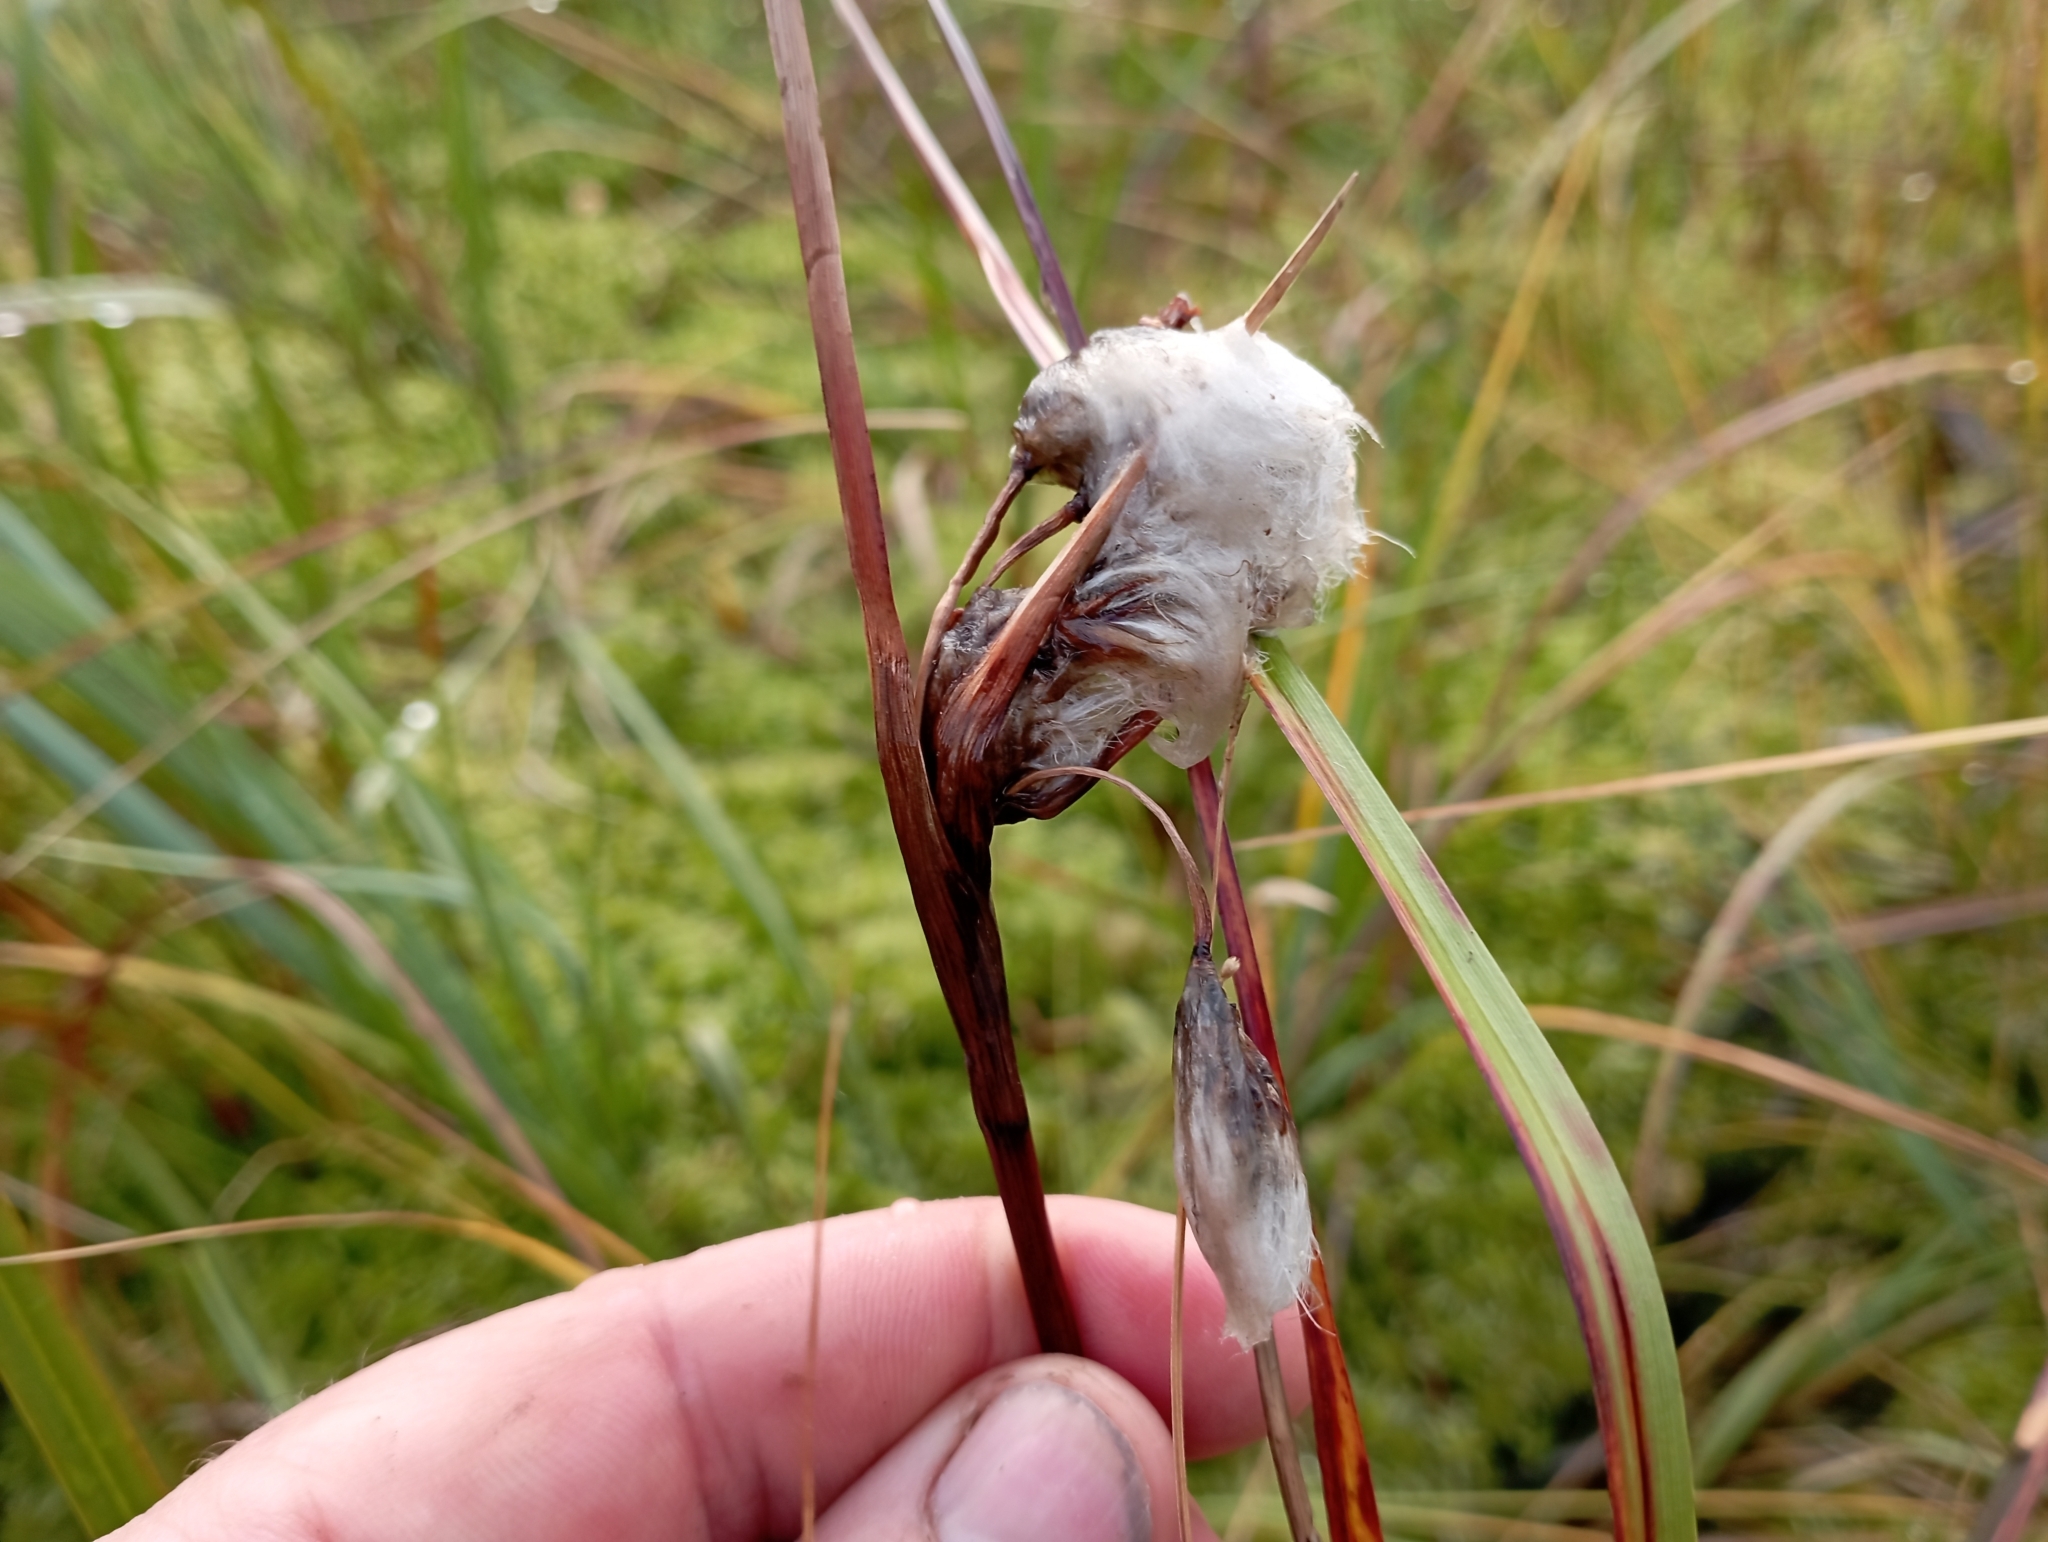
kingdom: Plantae
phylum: Tracheophyta
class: Liliopsida
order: Poales
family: Cyperaceae
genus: Eriophorum
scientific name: Eriophorum angustifolium
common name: Common cottongrass
